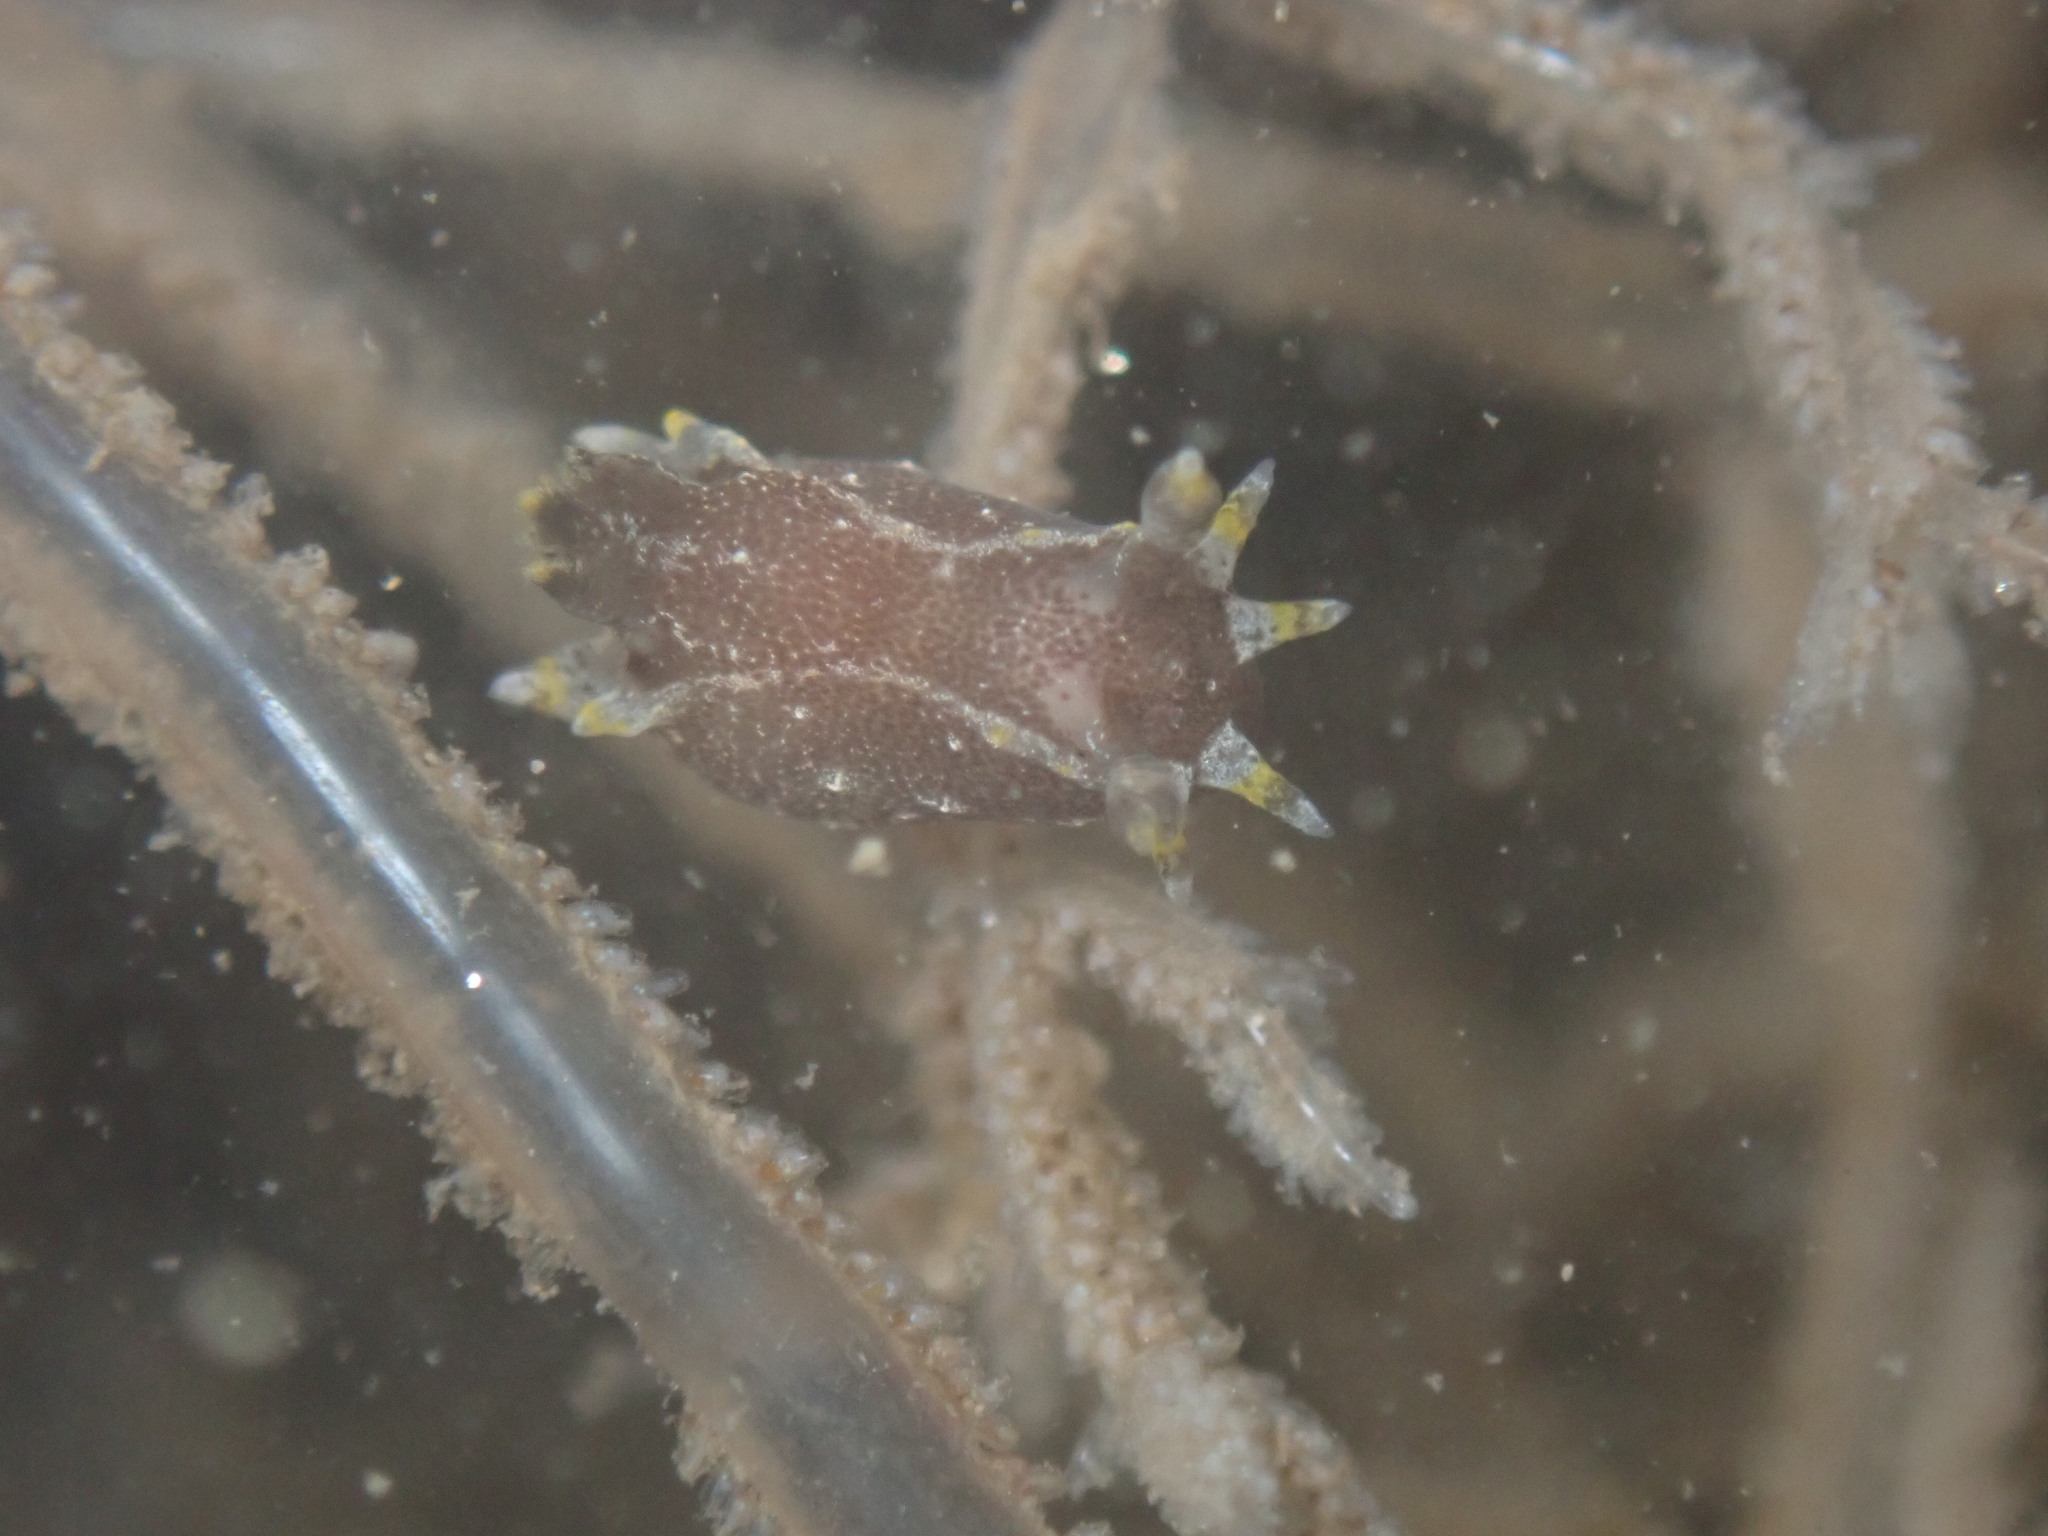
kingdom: Animalia
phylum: Mollusca
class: Gastropoda
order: Nudibranchia
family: Polyceridae
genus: Polycera
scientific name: Polycera hedgpethi
